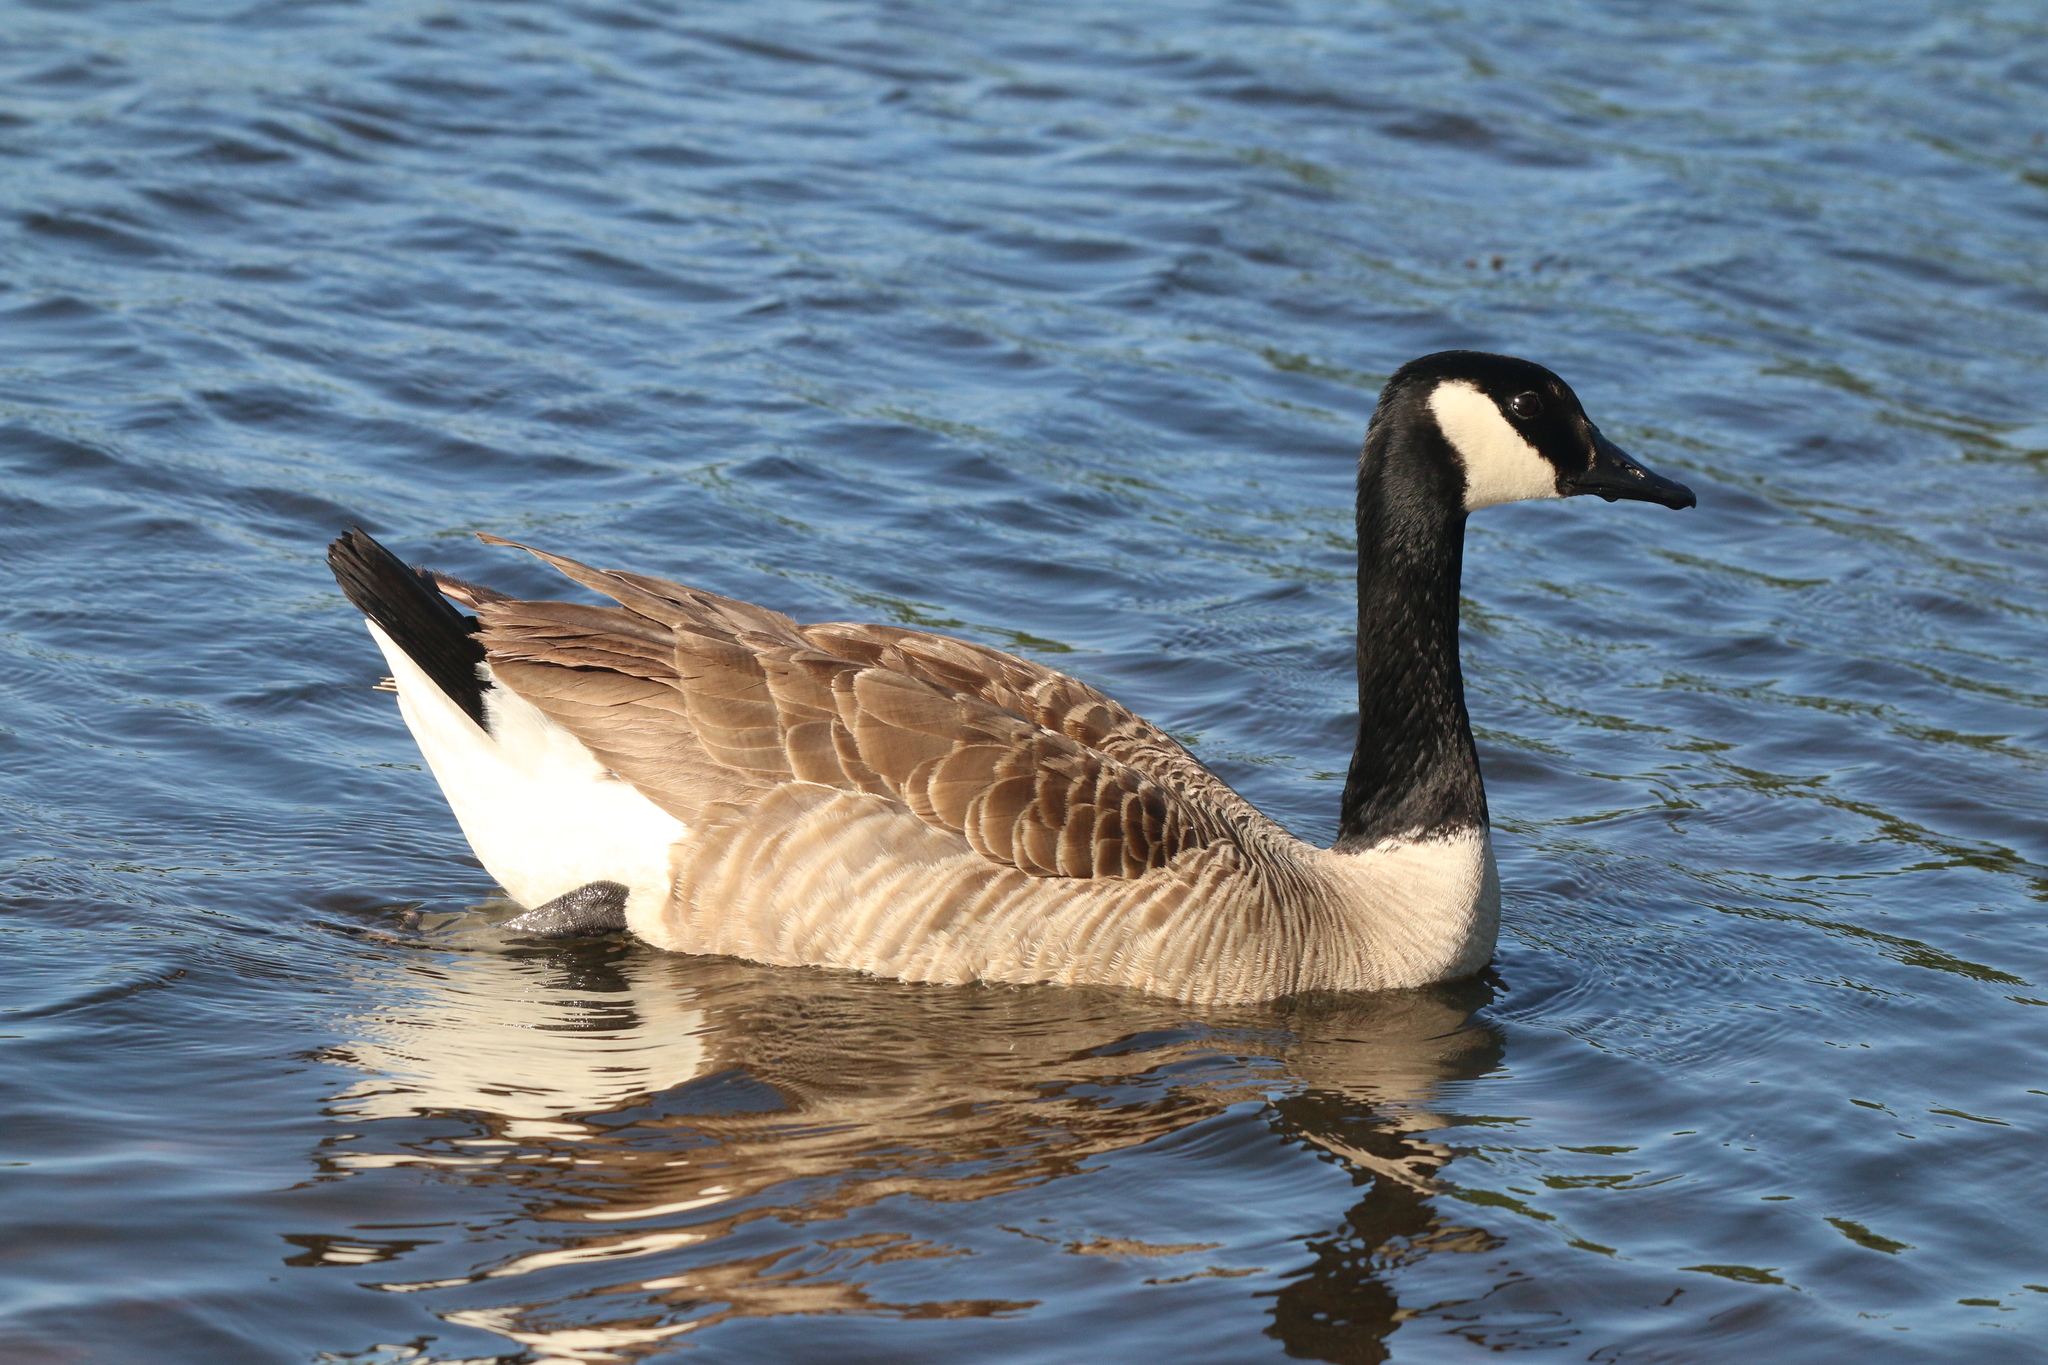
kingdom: Animalia
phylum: Chordata
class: Aves
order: Anseriformes
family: Anatidae
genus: Branta
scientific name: Branta canadensis
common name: Canada goose
